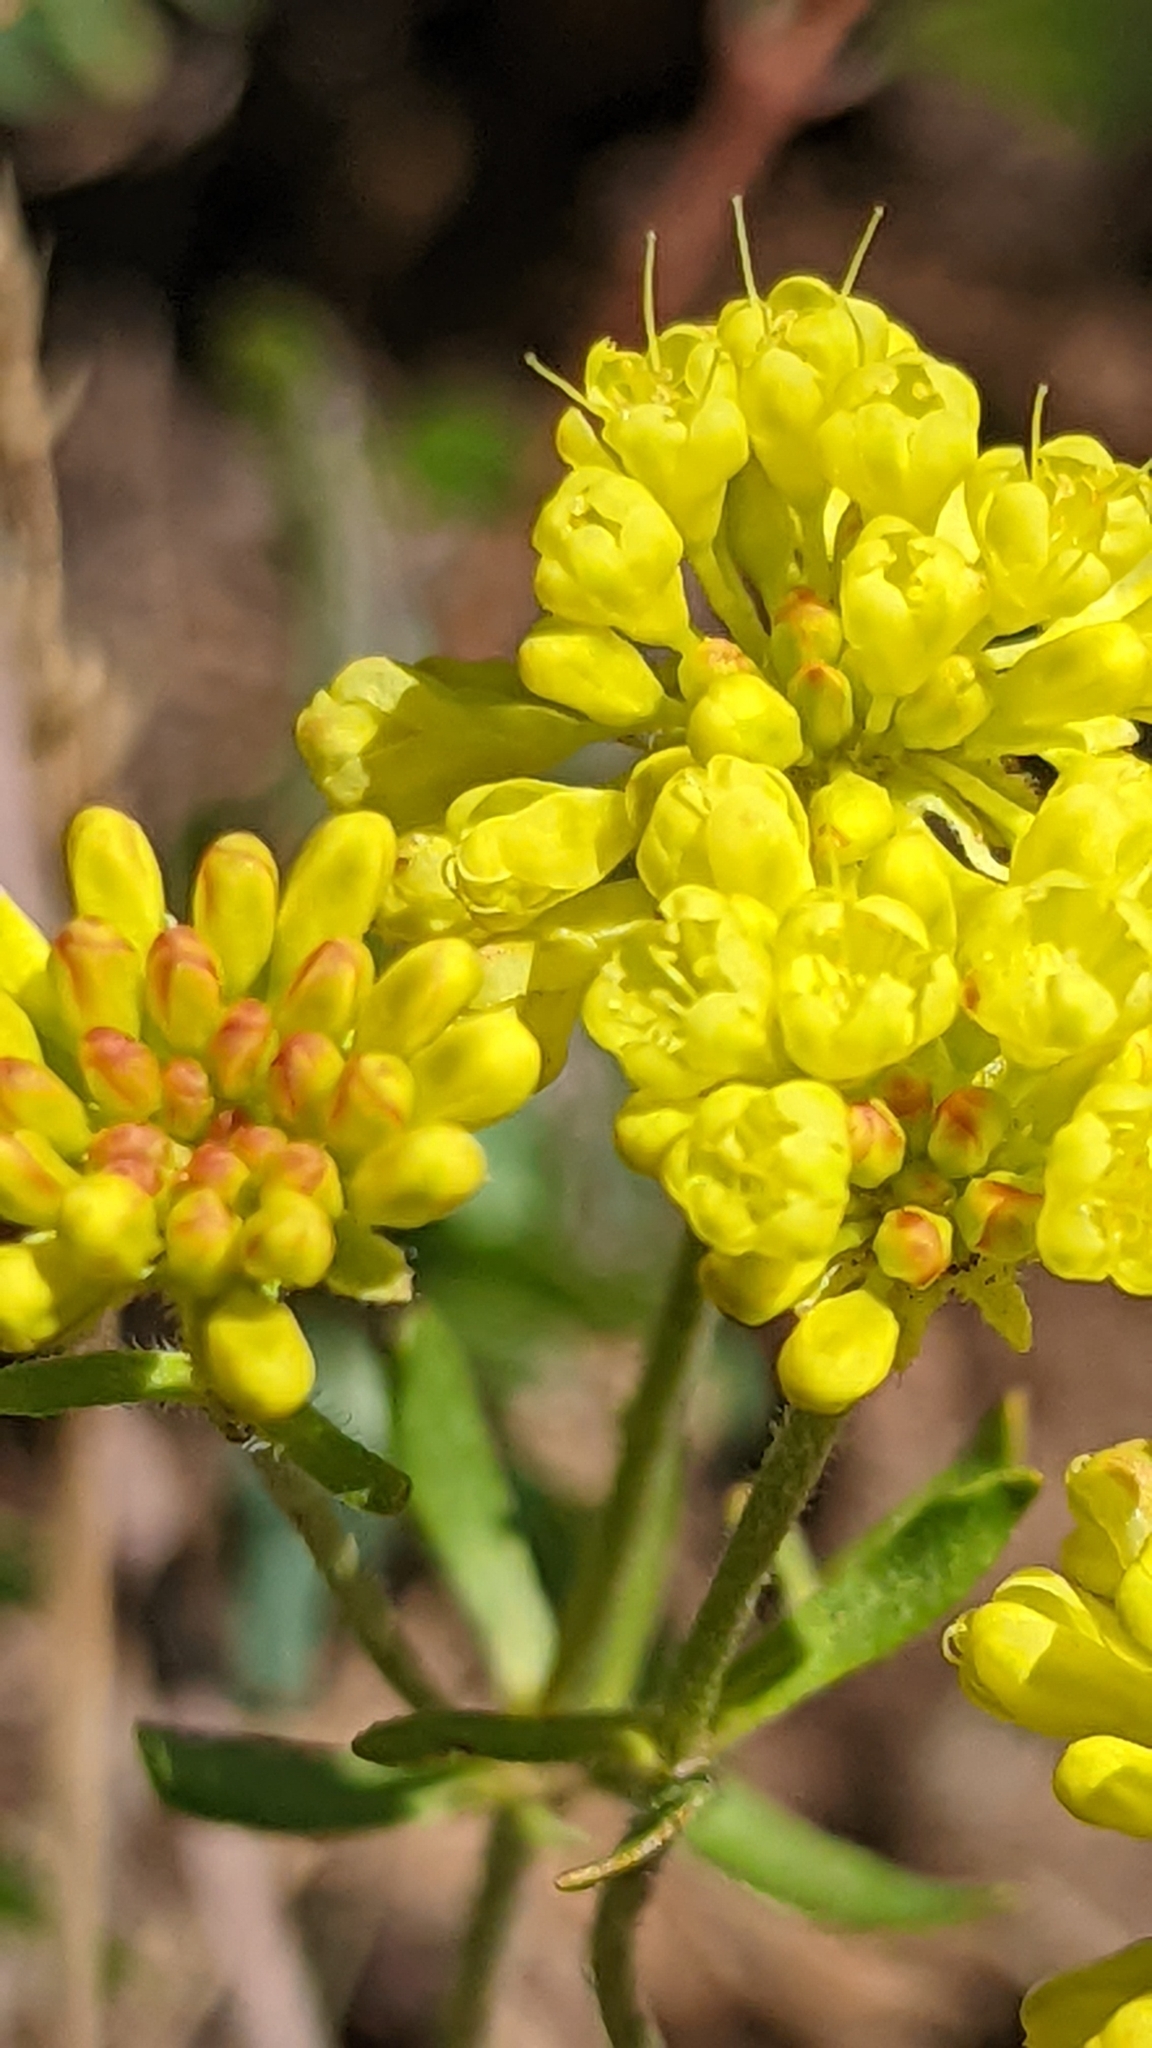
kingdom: Plantae
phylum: Tracheophyta
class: Magnoliopsida
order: Caryophyllales
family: Polygonaceae
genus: Eriogonum
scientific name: Eriogonum umbellatum
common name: Sulfur-buckwheat
